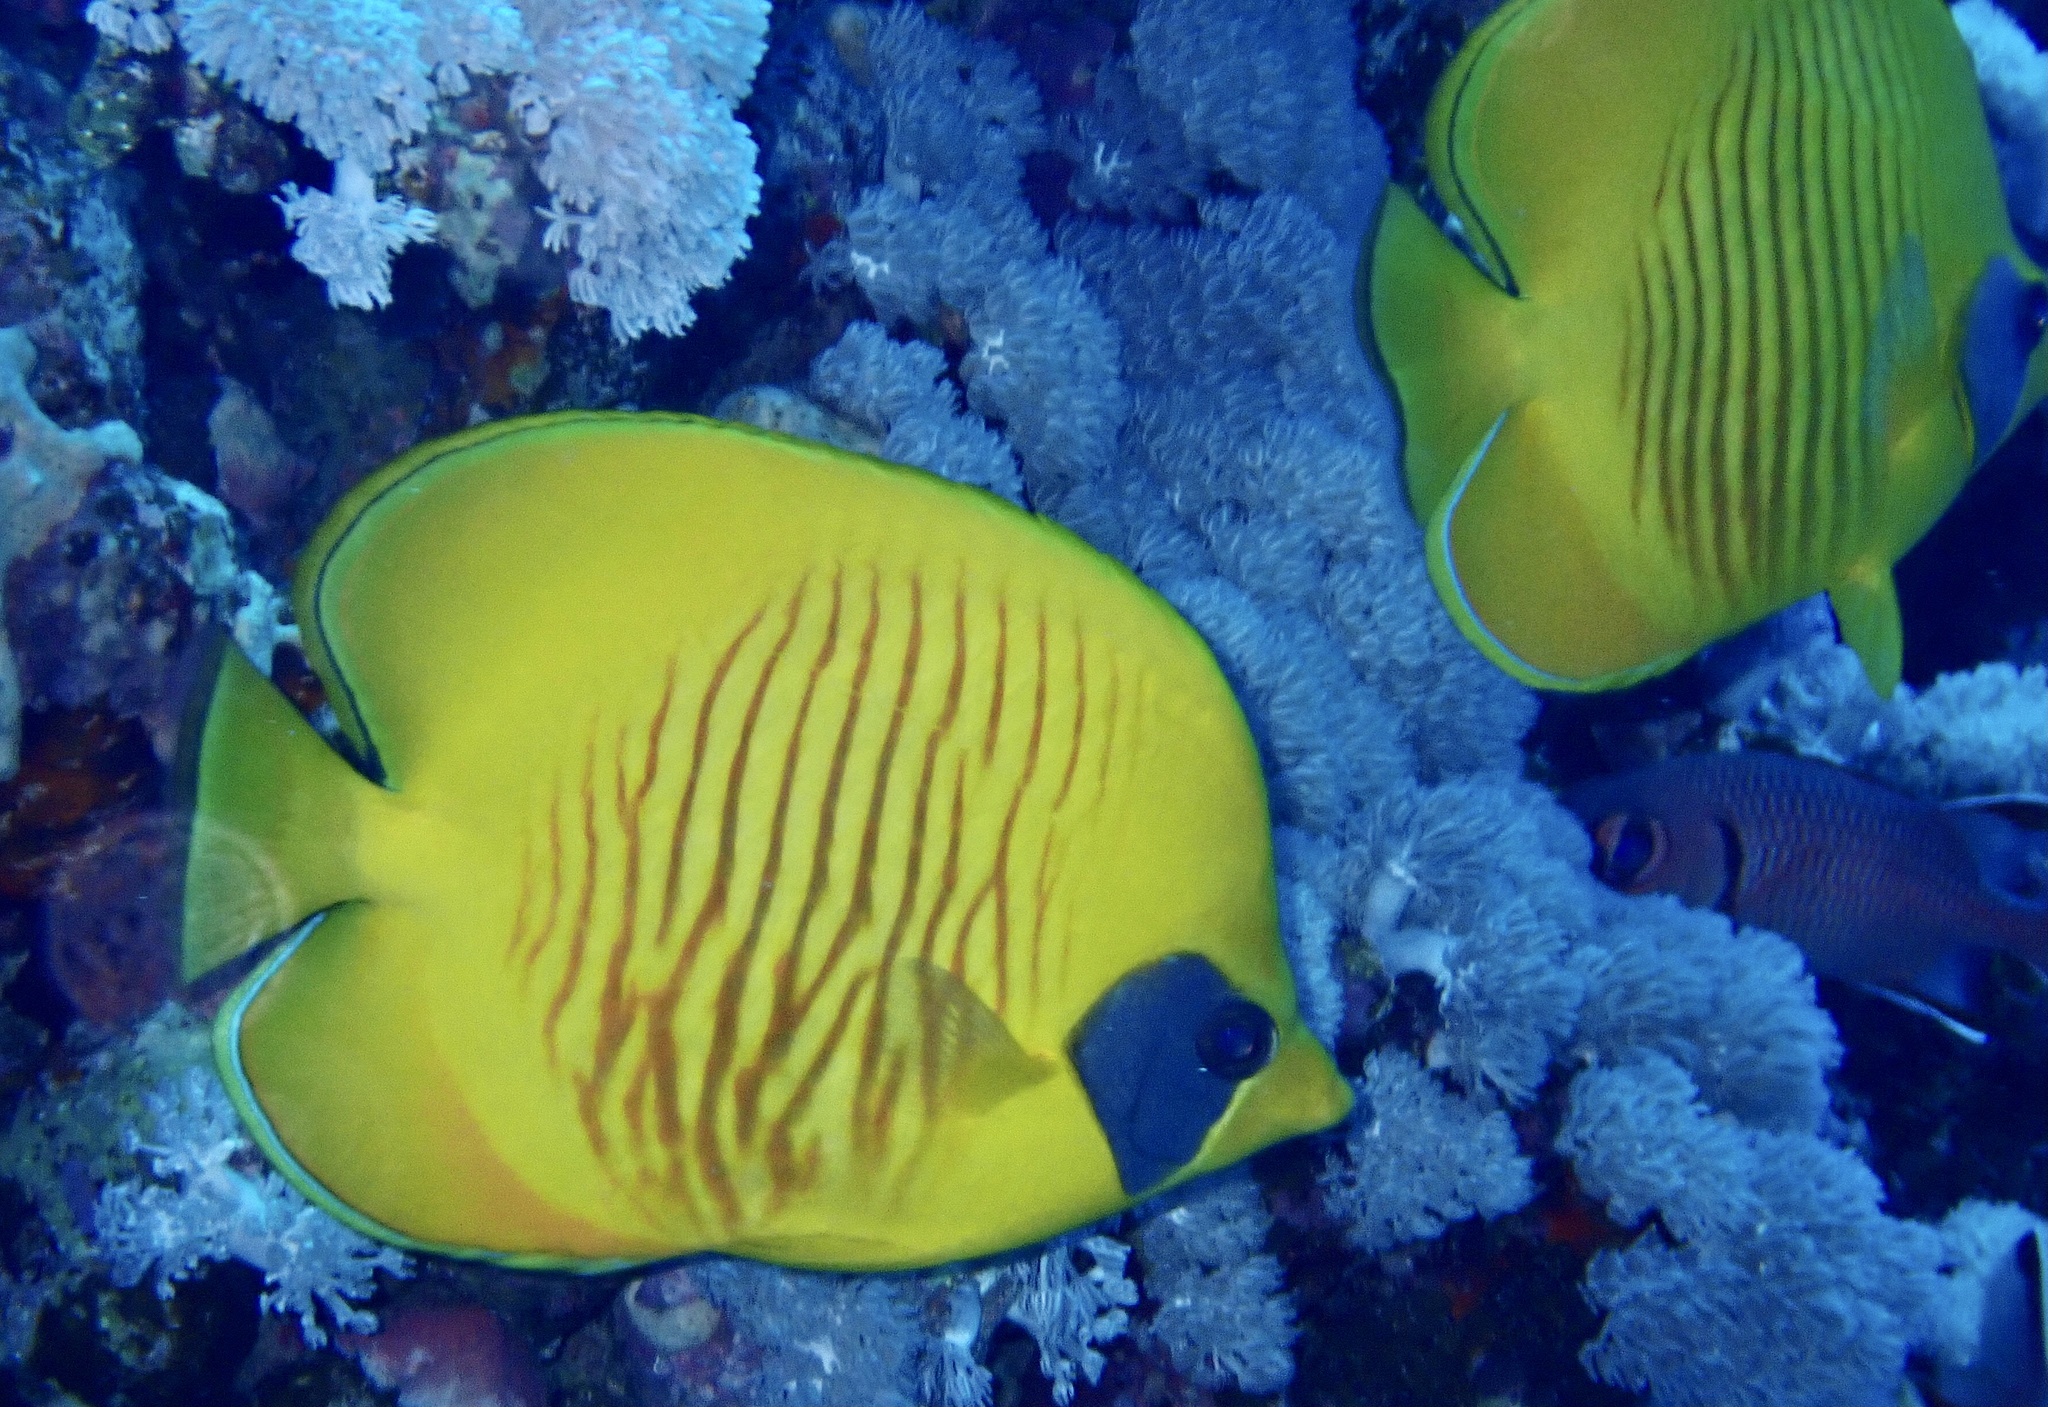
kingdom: Animalia
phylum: Chordata
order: Perciformes
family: Chaetodontidae
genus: Chaetodon
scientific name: Chaetodon semilarvatus
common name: Golden butterflyfish
